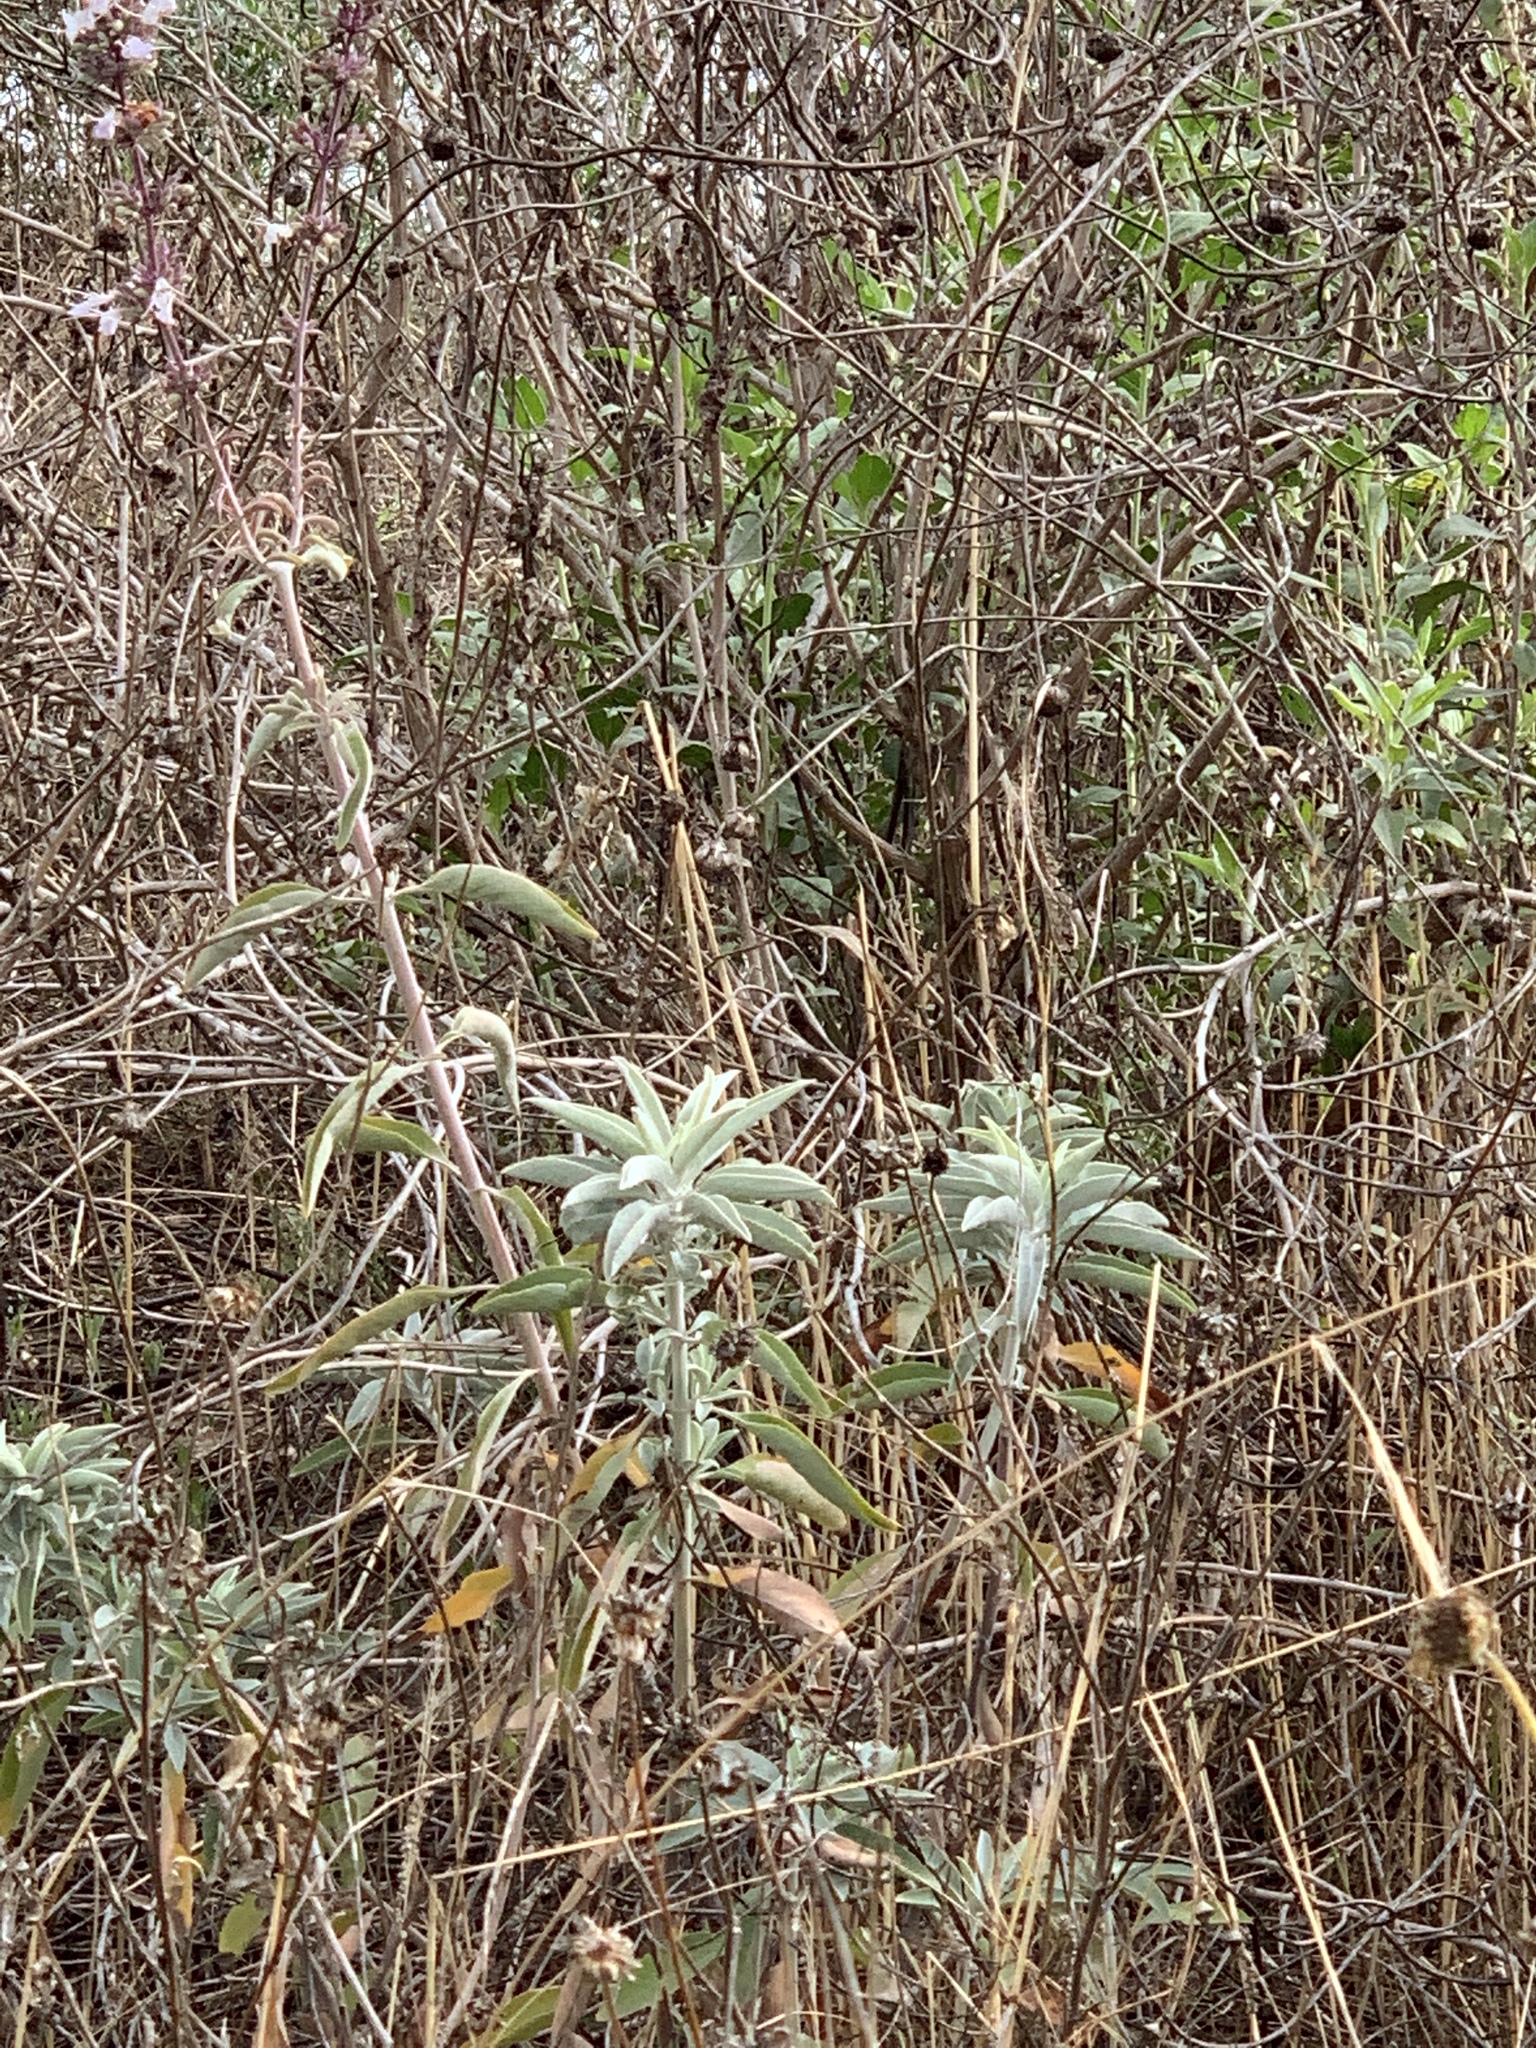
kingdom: Plantae
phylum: Tracheophyta
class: Magnoliopsida
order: Lamiales
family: Lamiaceae
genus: Salvia
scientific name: Salvia apiana
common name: White sage
